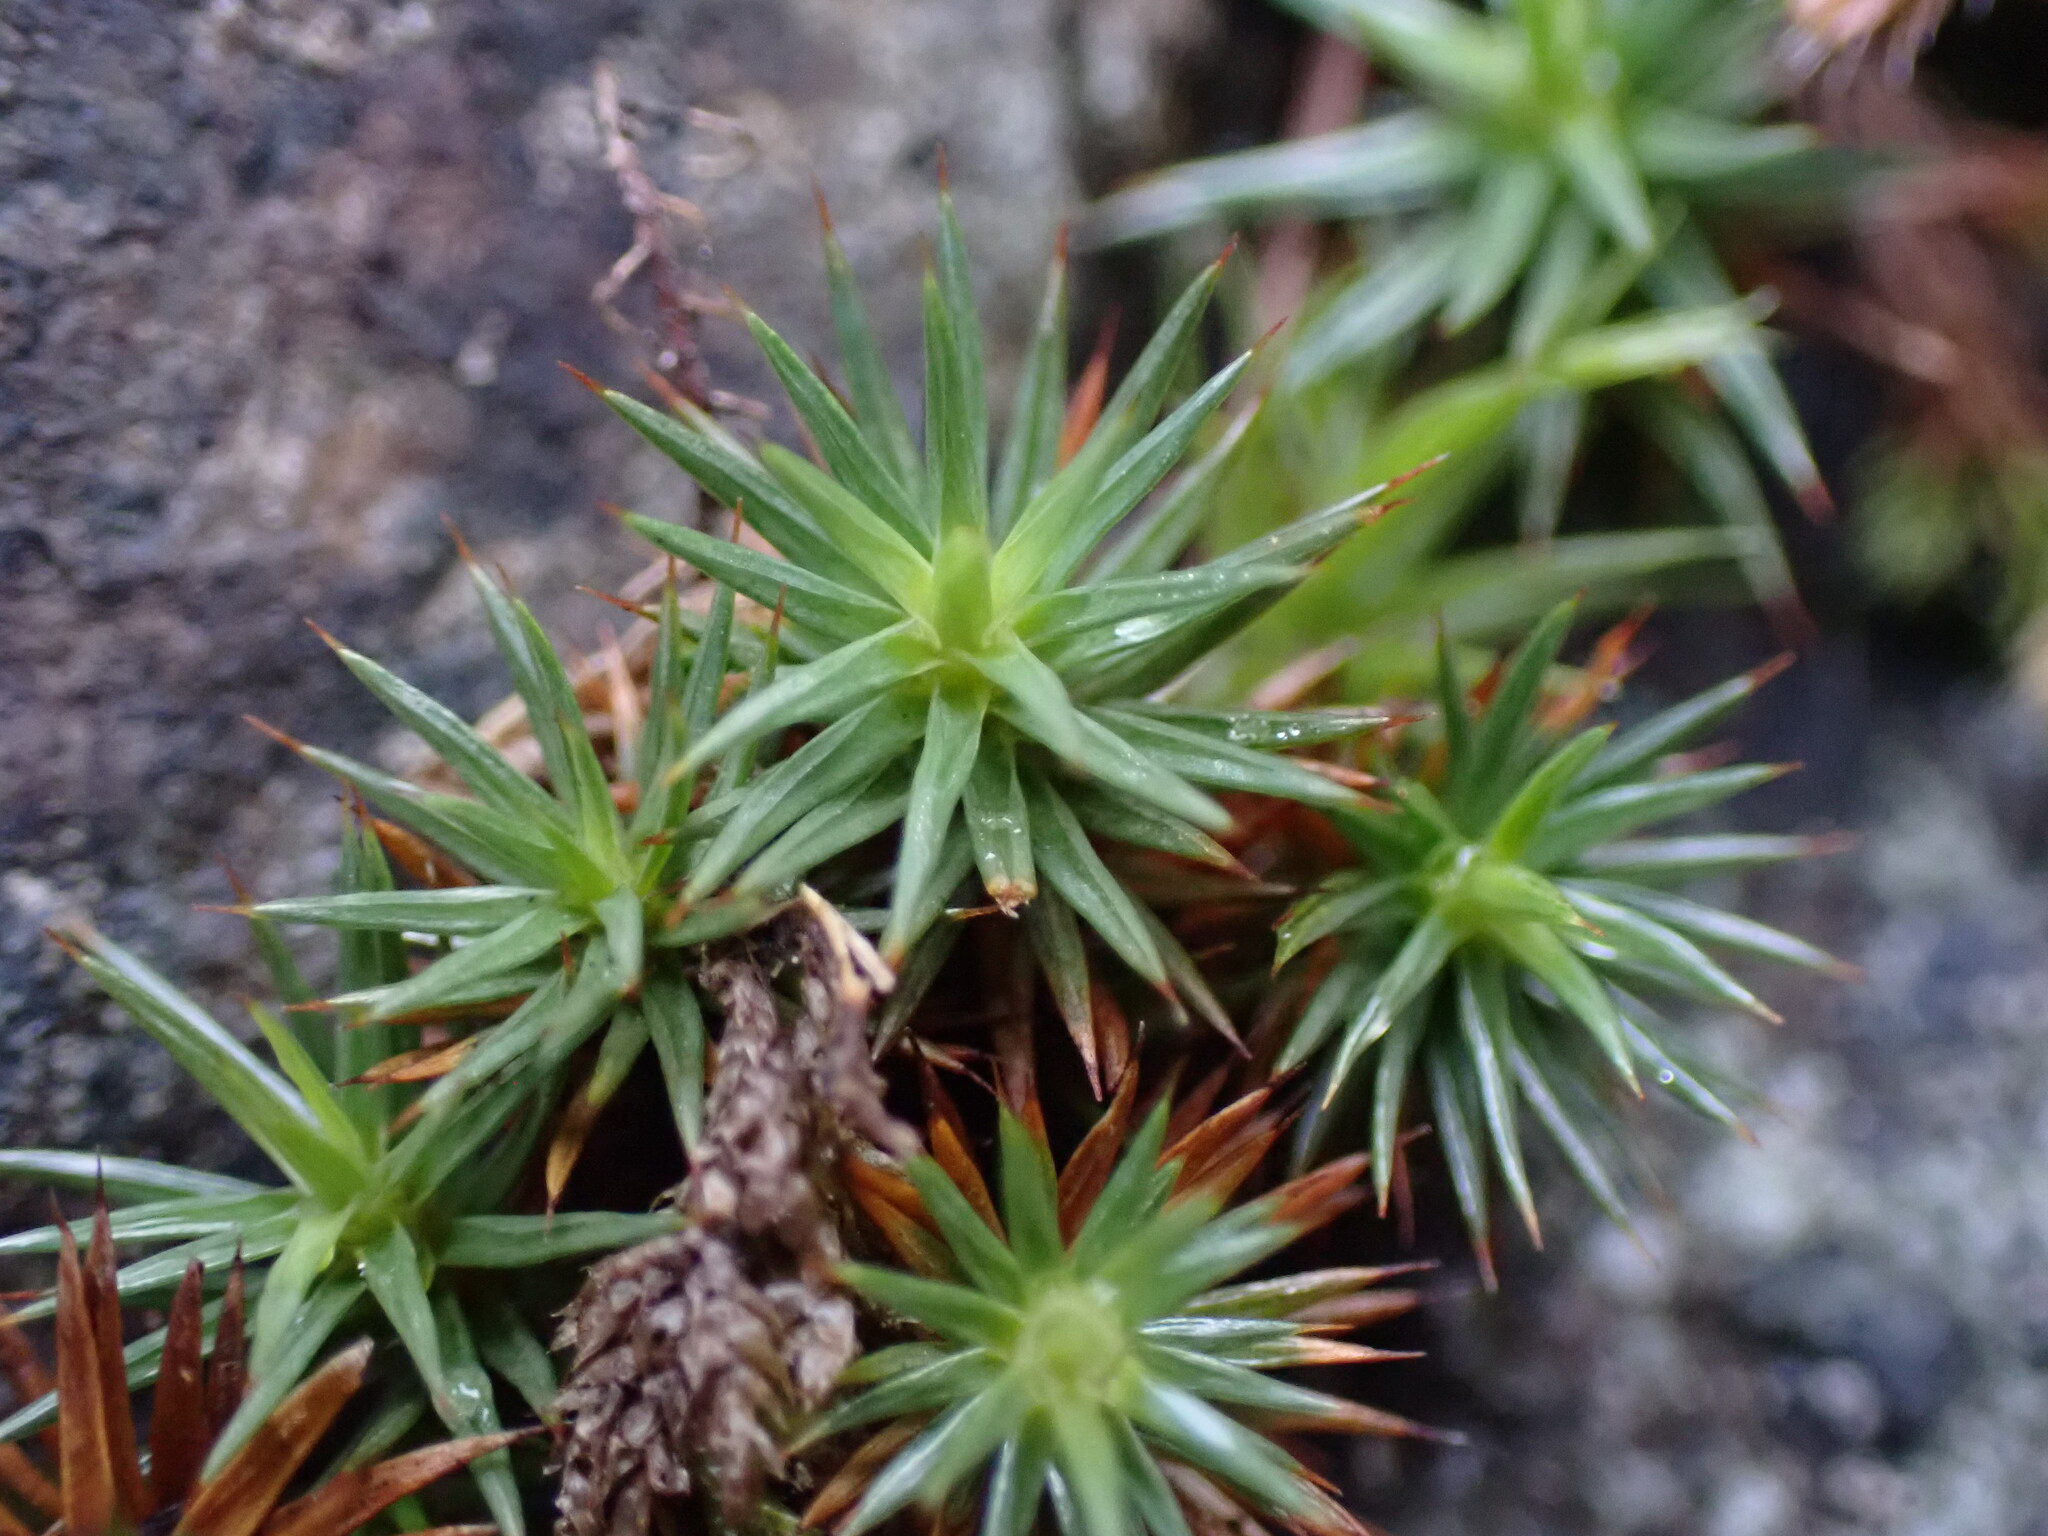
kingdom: Plantae
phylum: Bryophyta
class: Polytrichopsida
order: Polytrichales
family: Polytrichaceae
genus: Polytrichum
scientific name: Polytrichum juniperinum
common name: Juniper haircap moss
